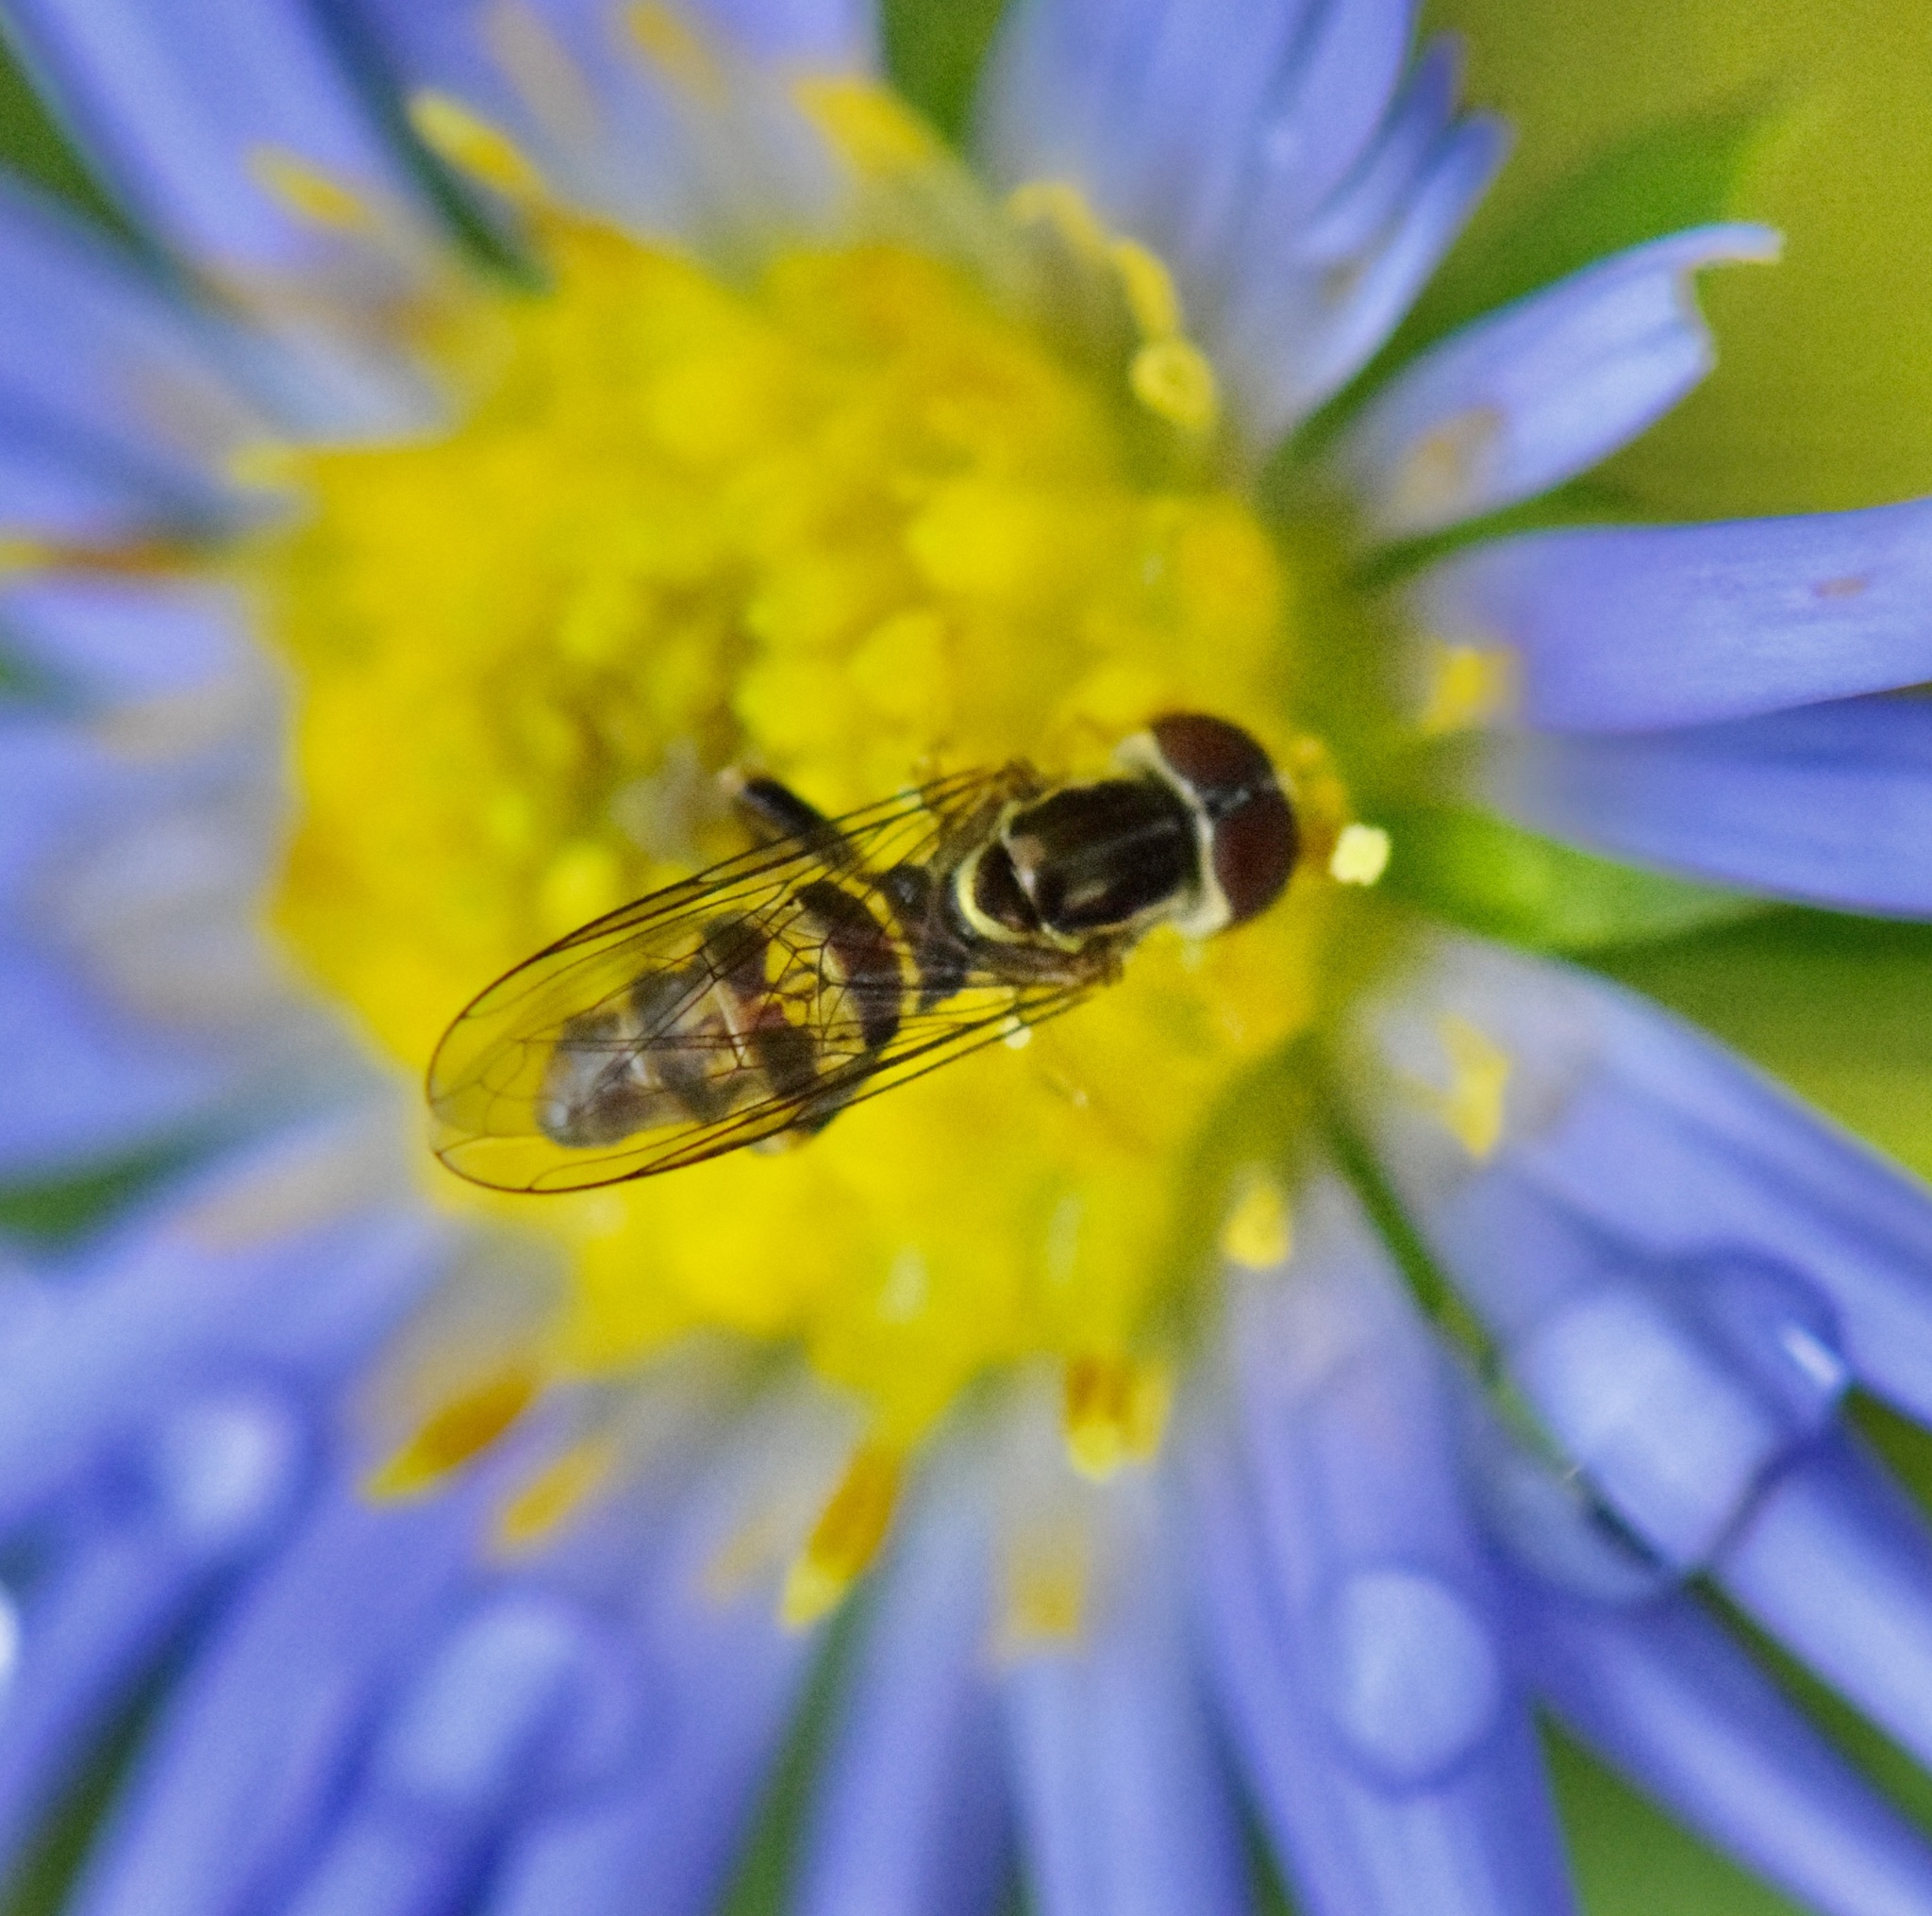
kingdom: Animalia
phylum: Arthropoda
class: Insecta
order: Diptera
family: Syrphidae
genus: Toxomerus
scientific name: Toxomerus geminatus
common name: Eastern calligrapher
